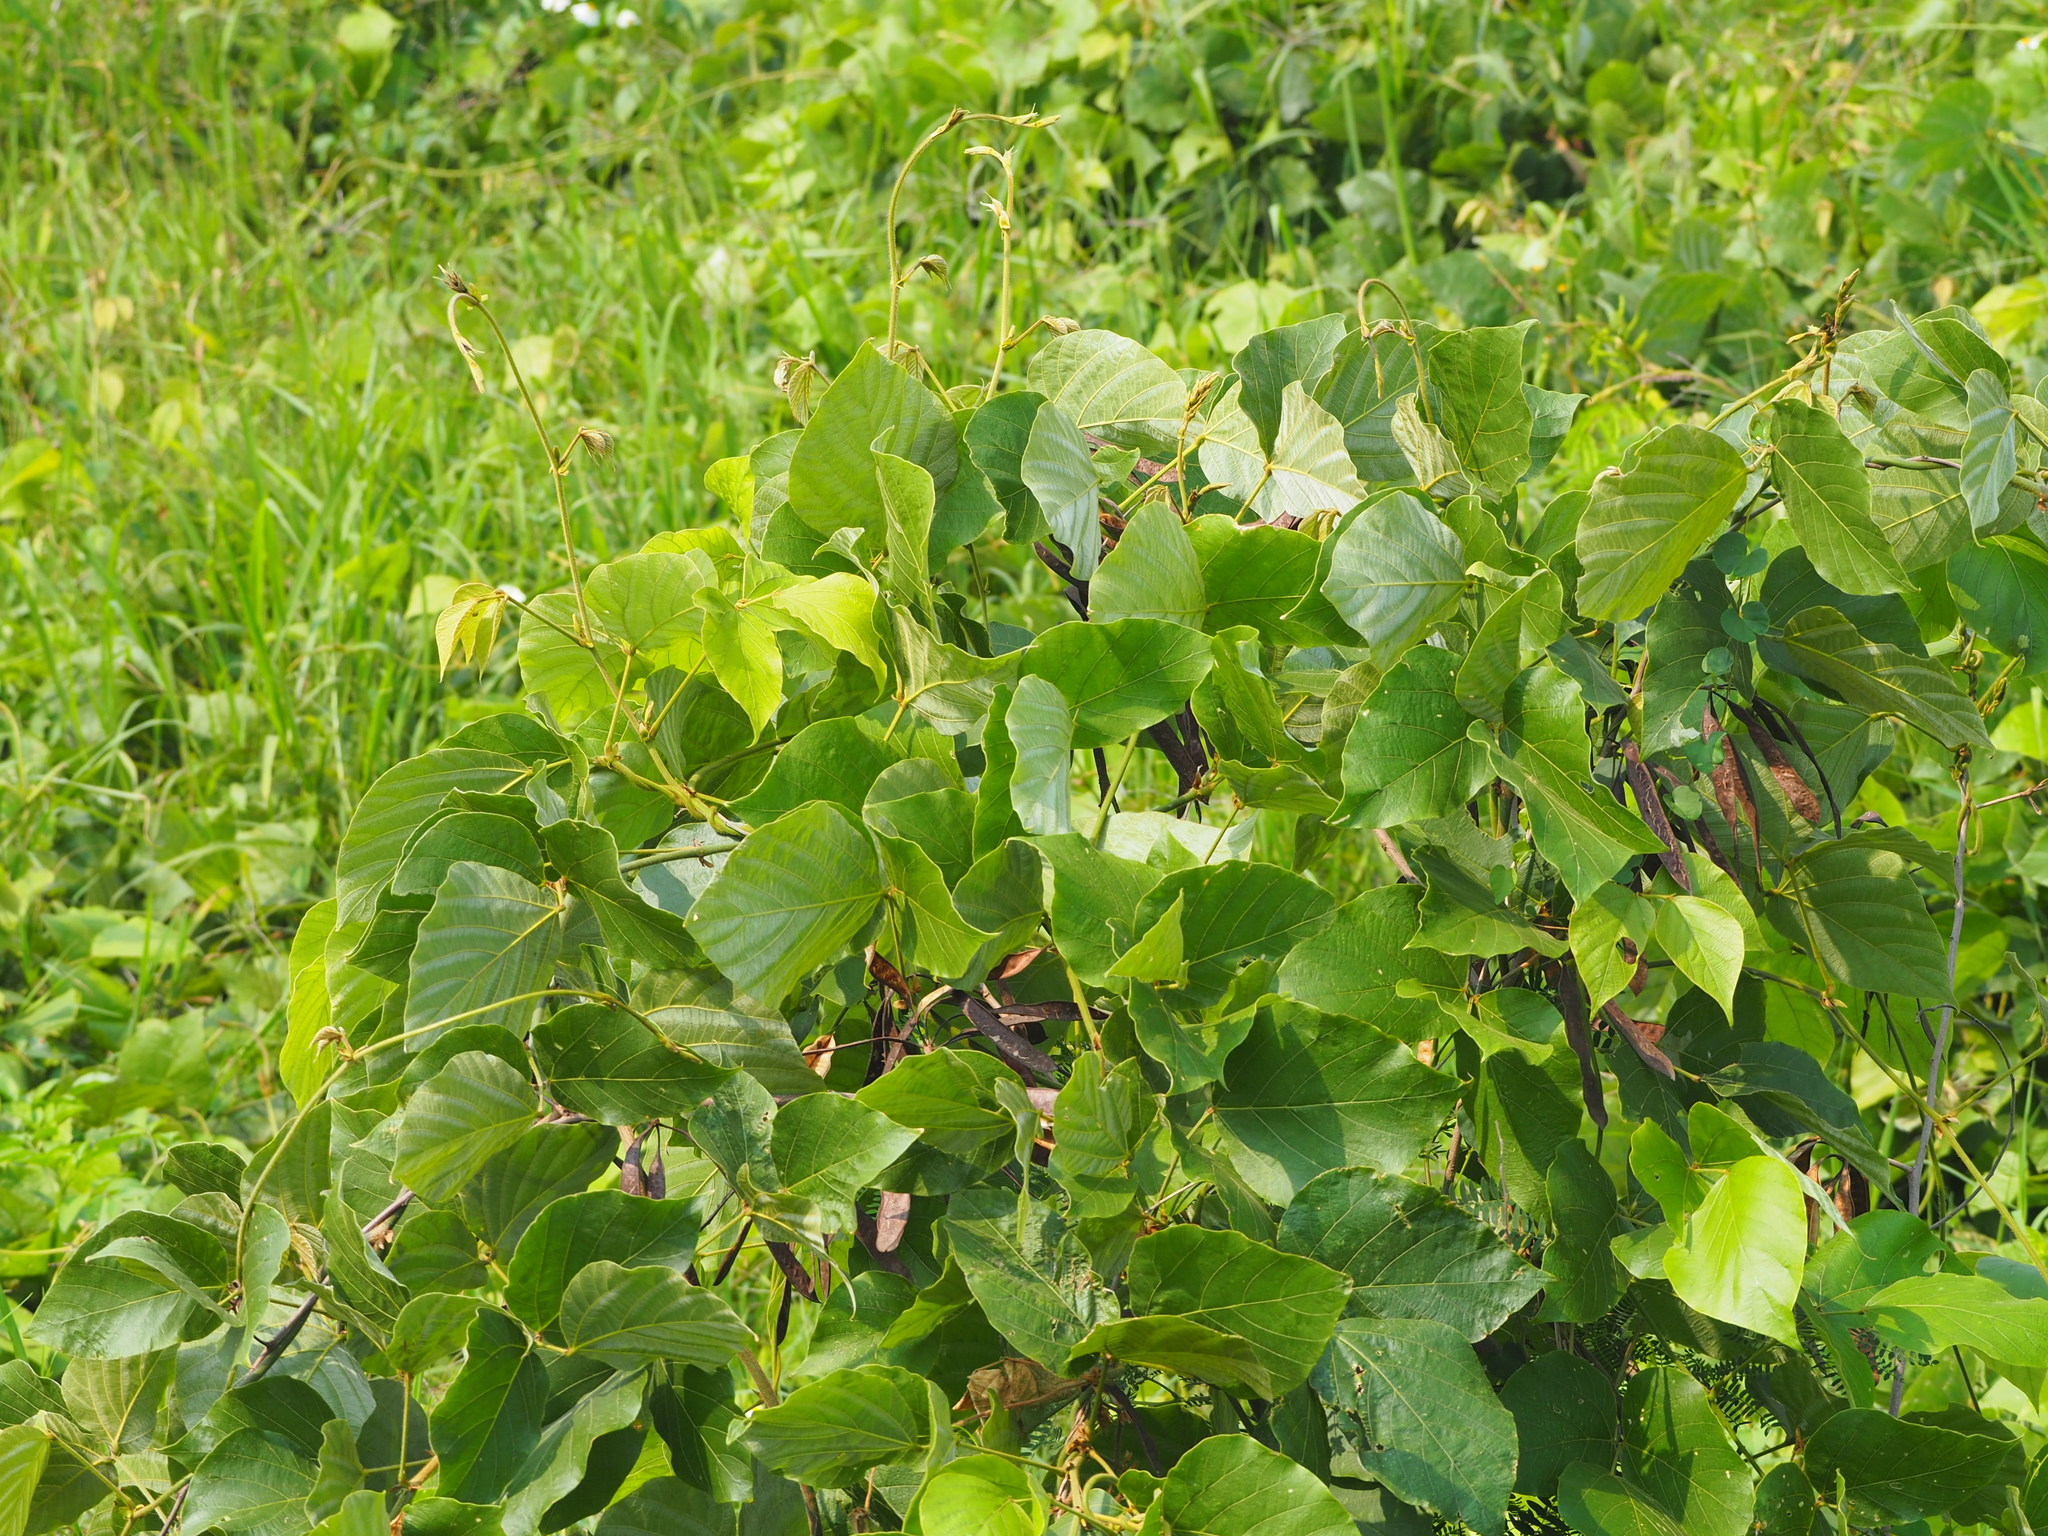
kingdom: Plantae
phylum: Tracheophyta
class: Magnoliopsida
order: Fabales
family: Fabaceae
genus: Pueraria
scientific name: Pueraria montana
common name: Kudzu
